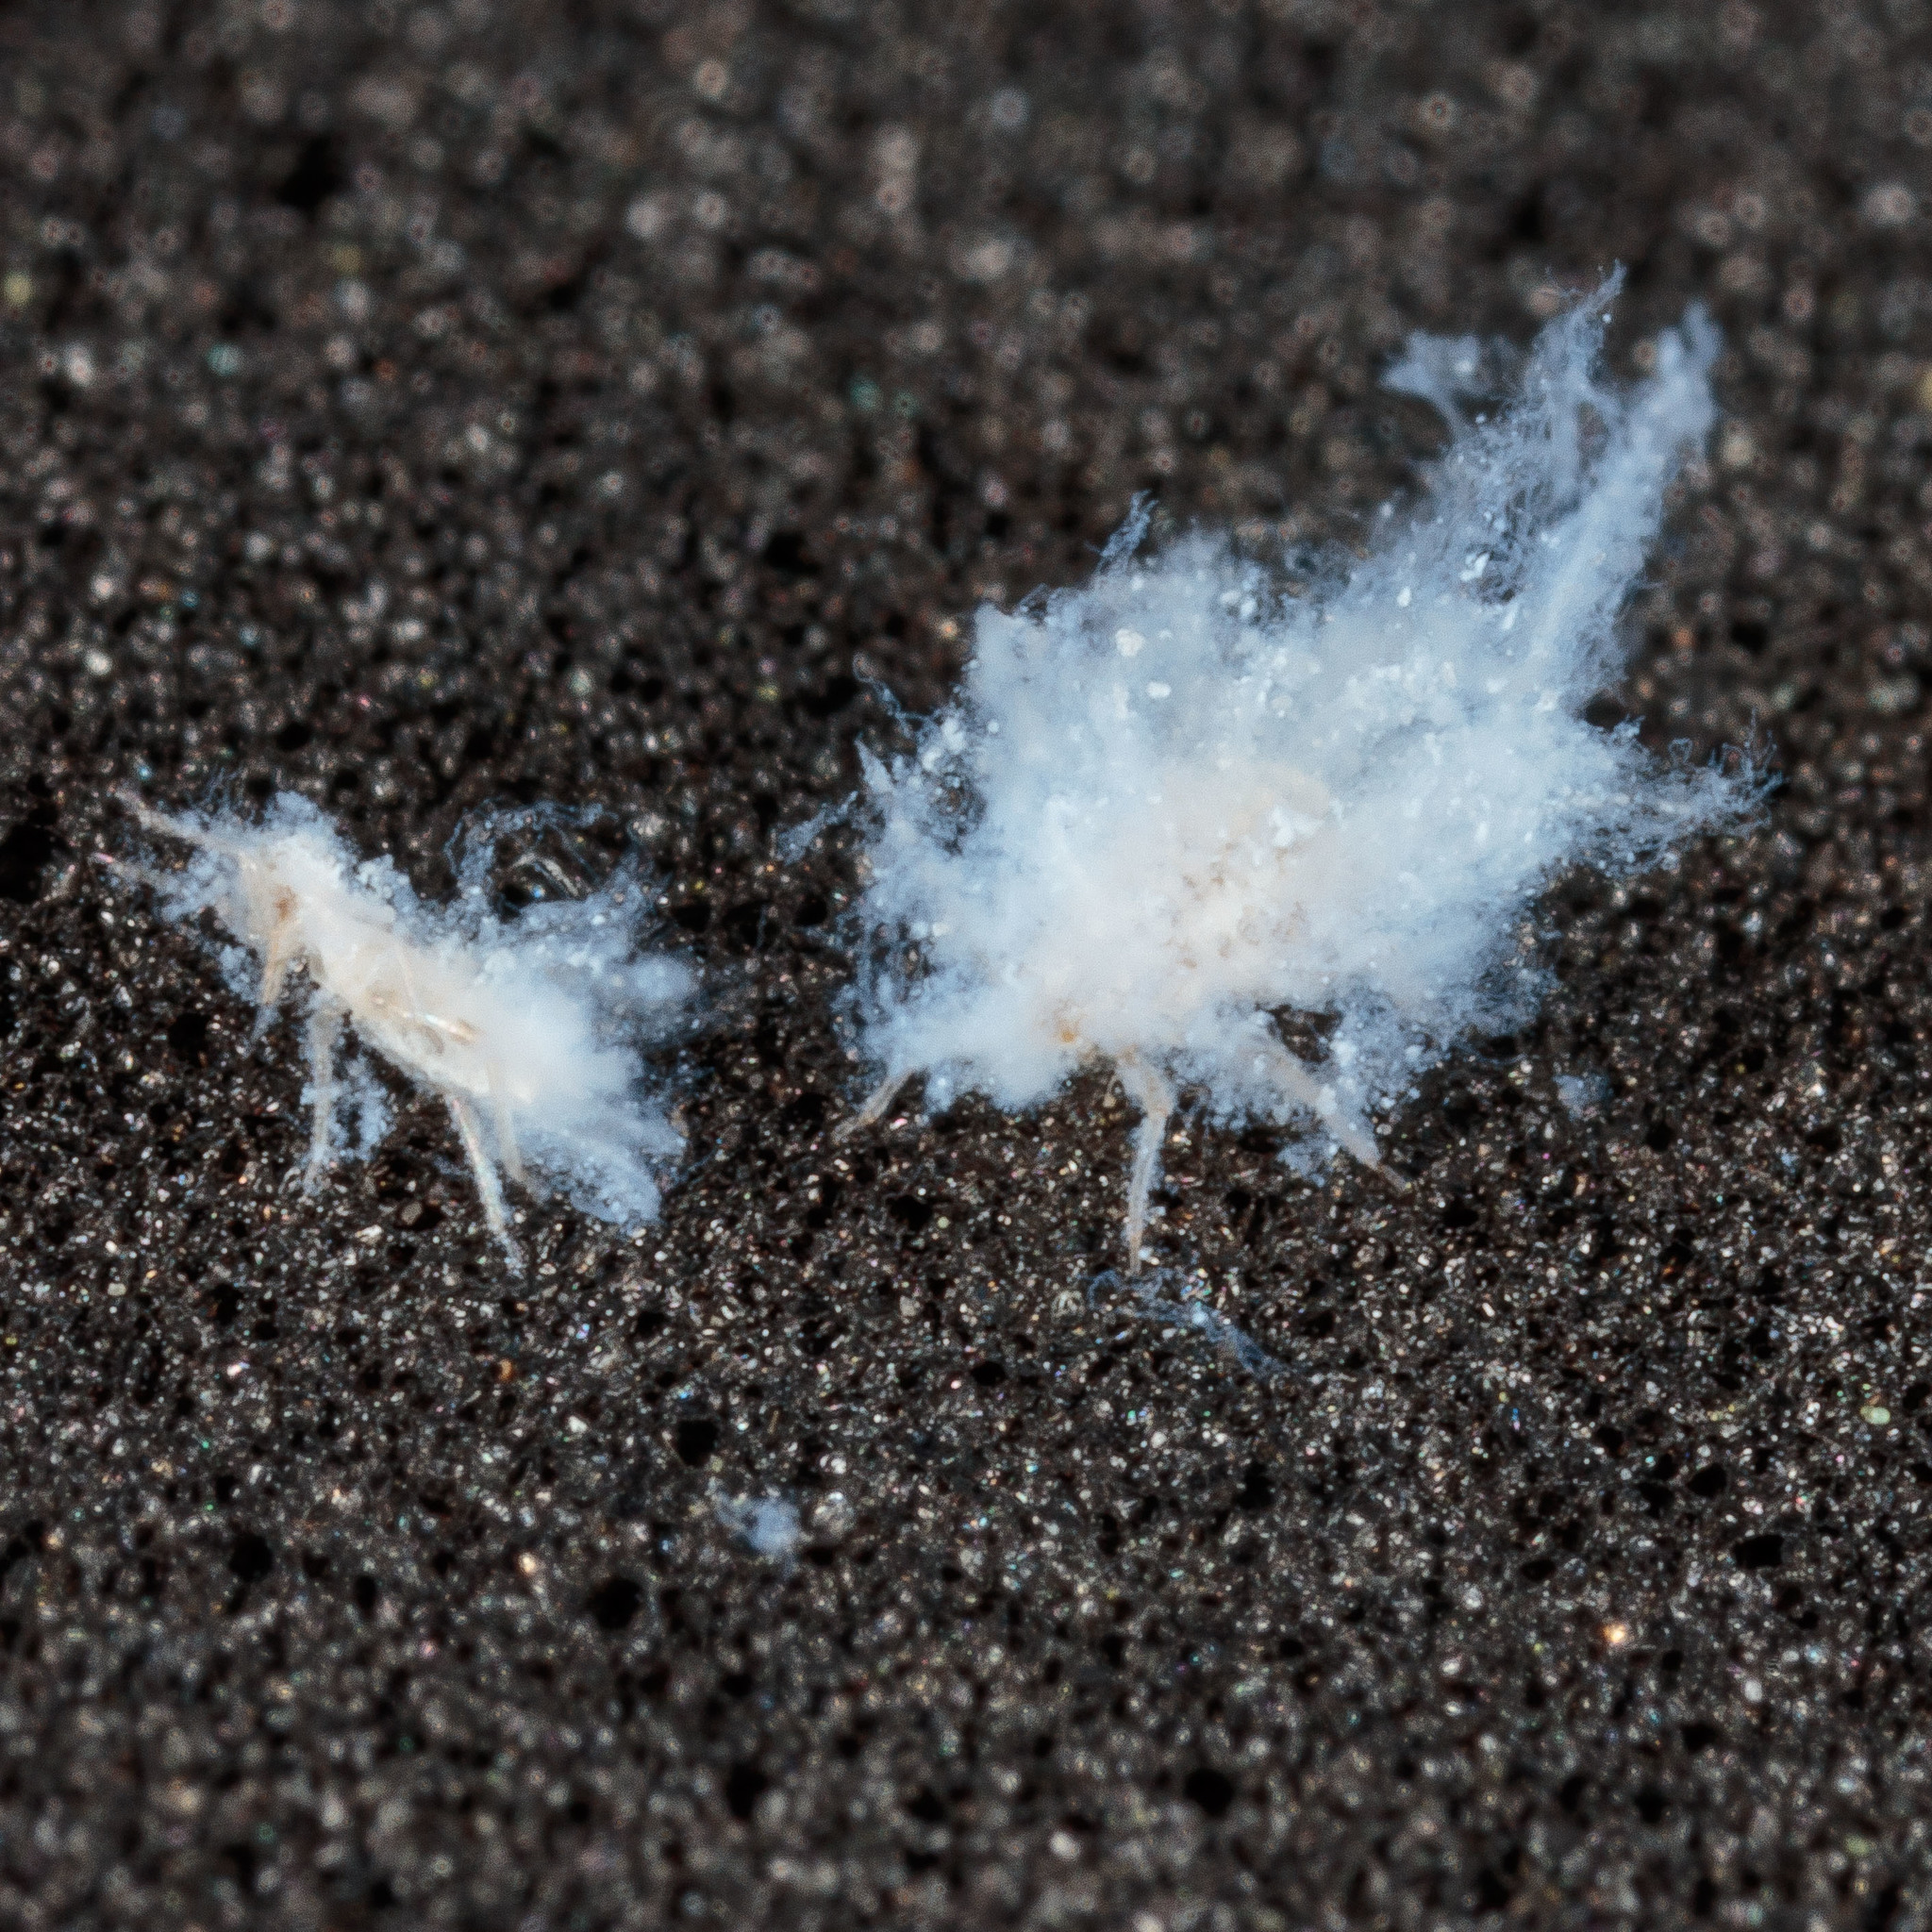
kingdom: Animalia
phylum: Arthropoda
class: Insecta
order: Hemiptera
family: Aphididae
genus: Shivaphis
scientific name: Shivaphis celti
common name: Asian wooly hackberry aphid
